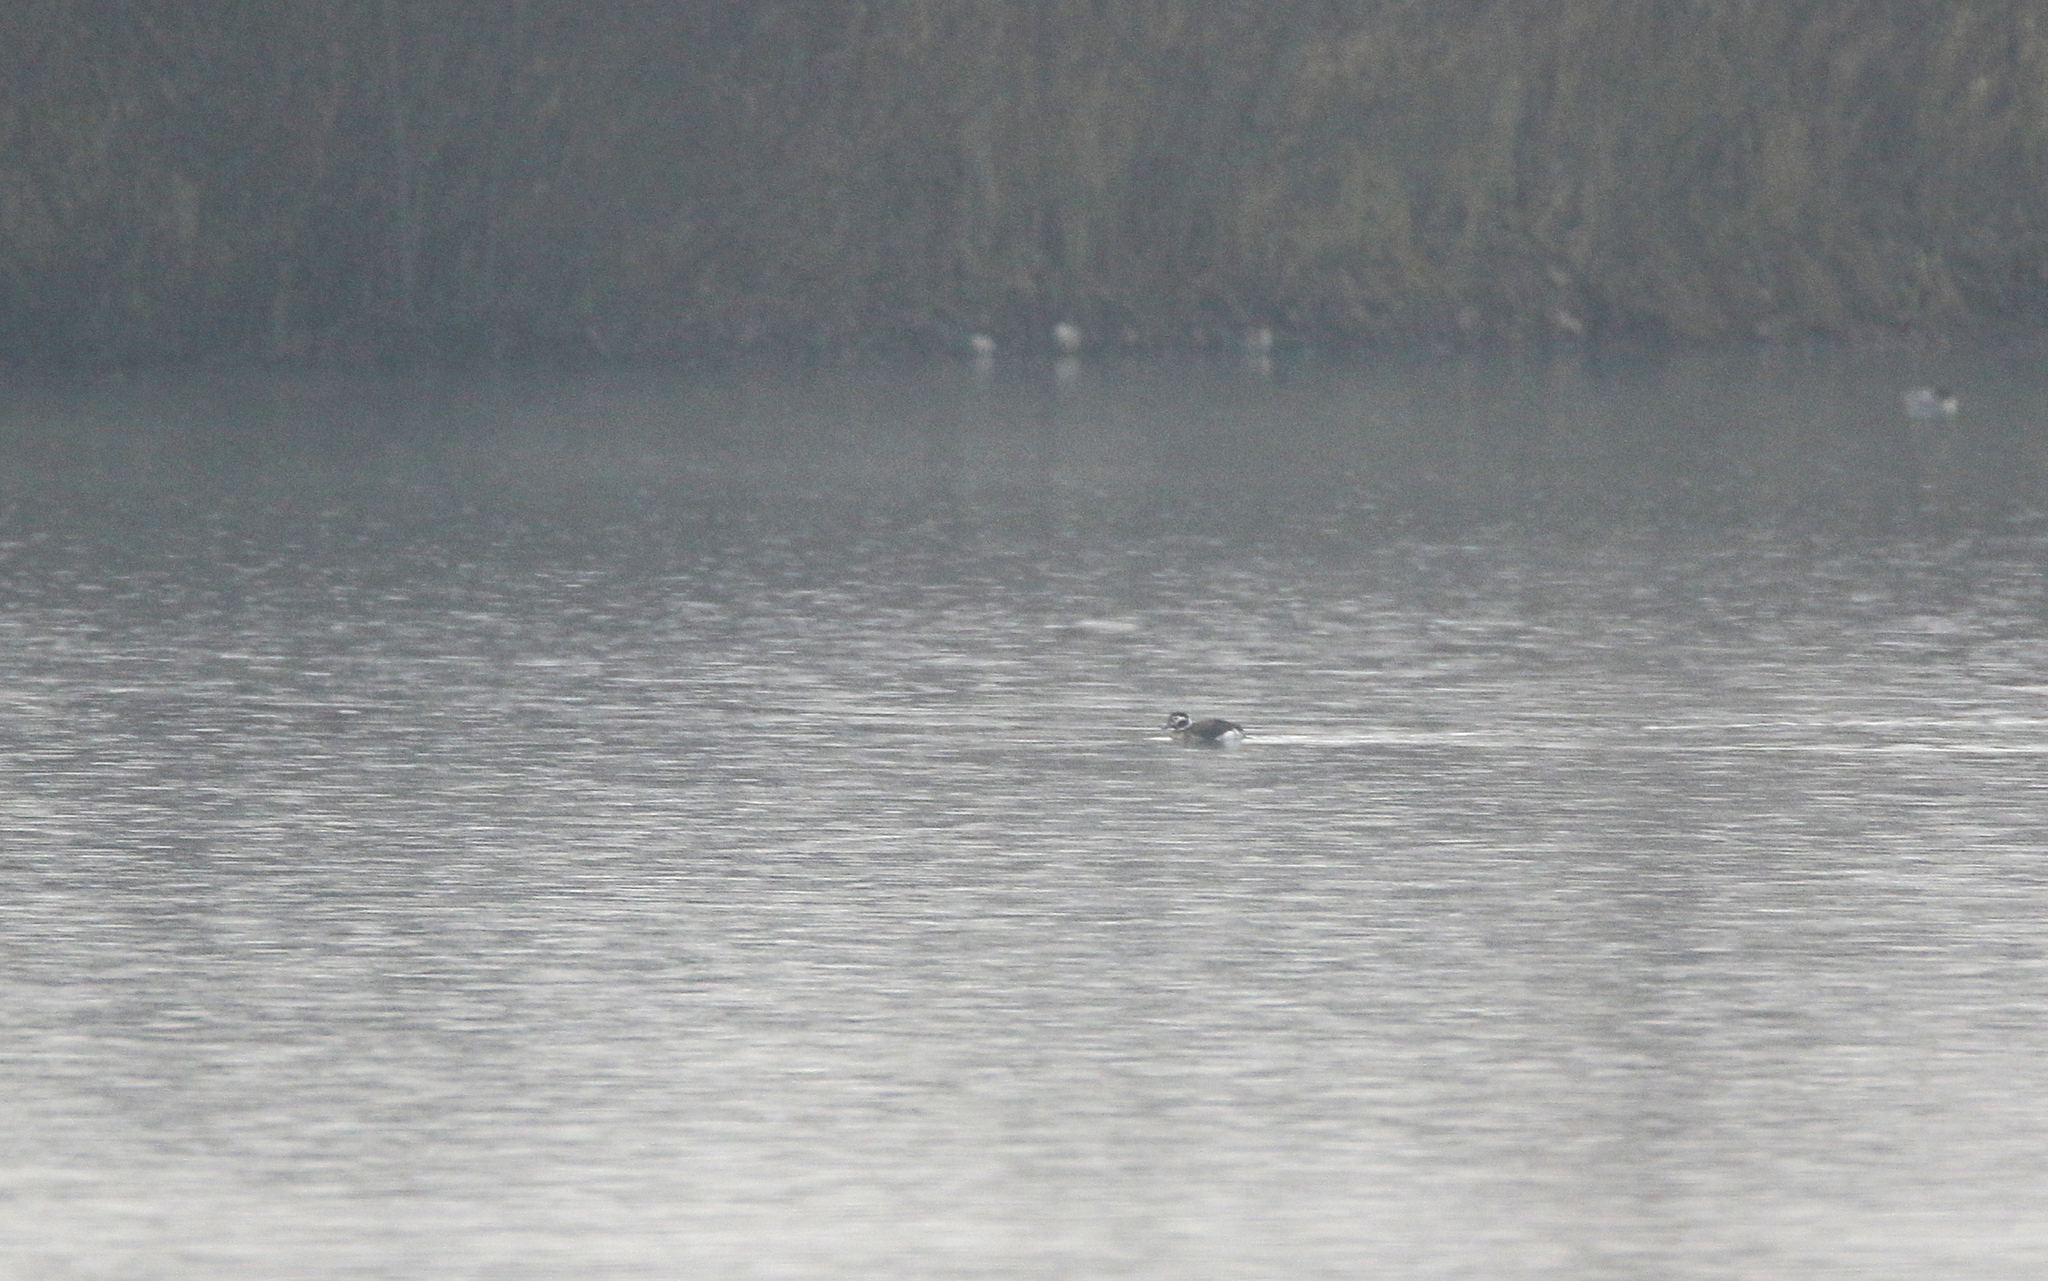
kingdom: Animalia
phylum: Chordata
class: Aves
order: Anseriformes
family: Anatidae
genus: Clangula
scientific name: Clangula hyemalis
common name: Long-tailed duck
